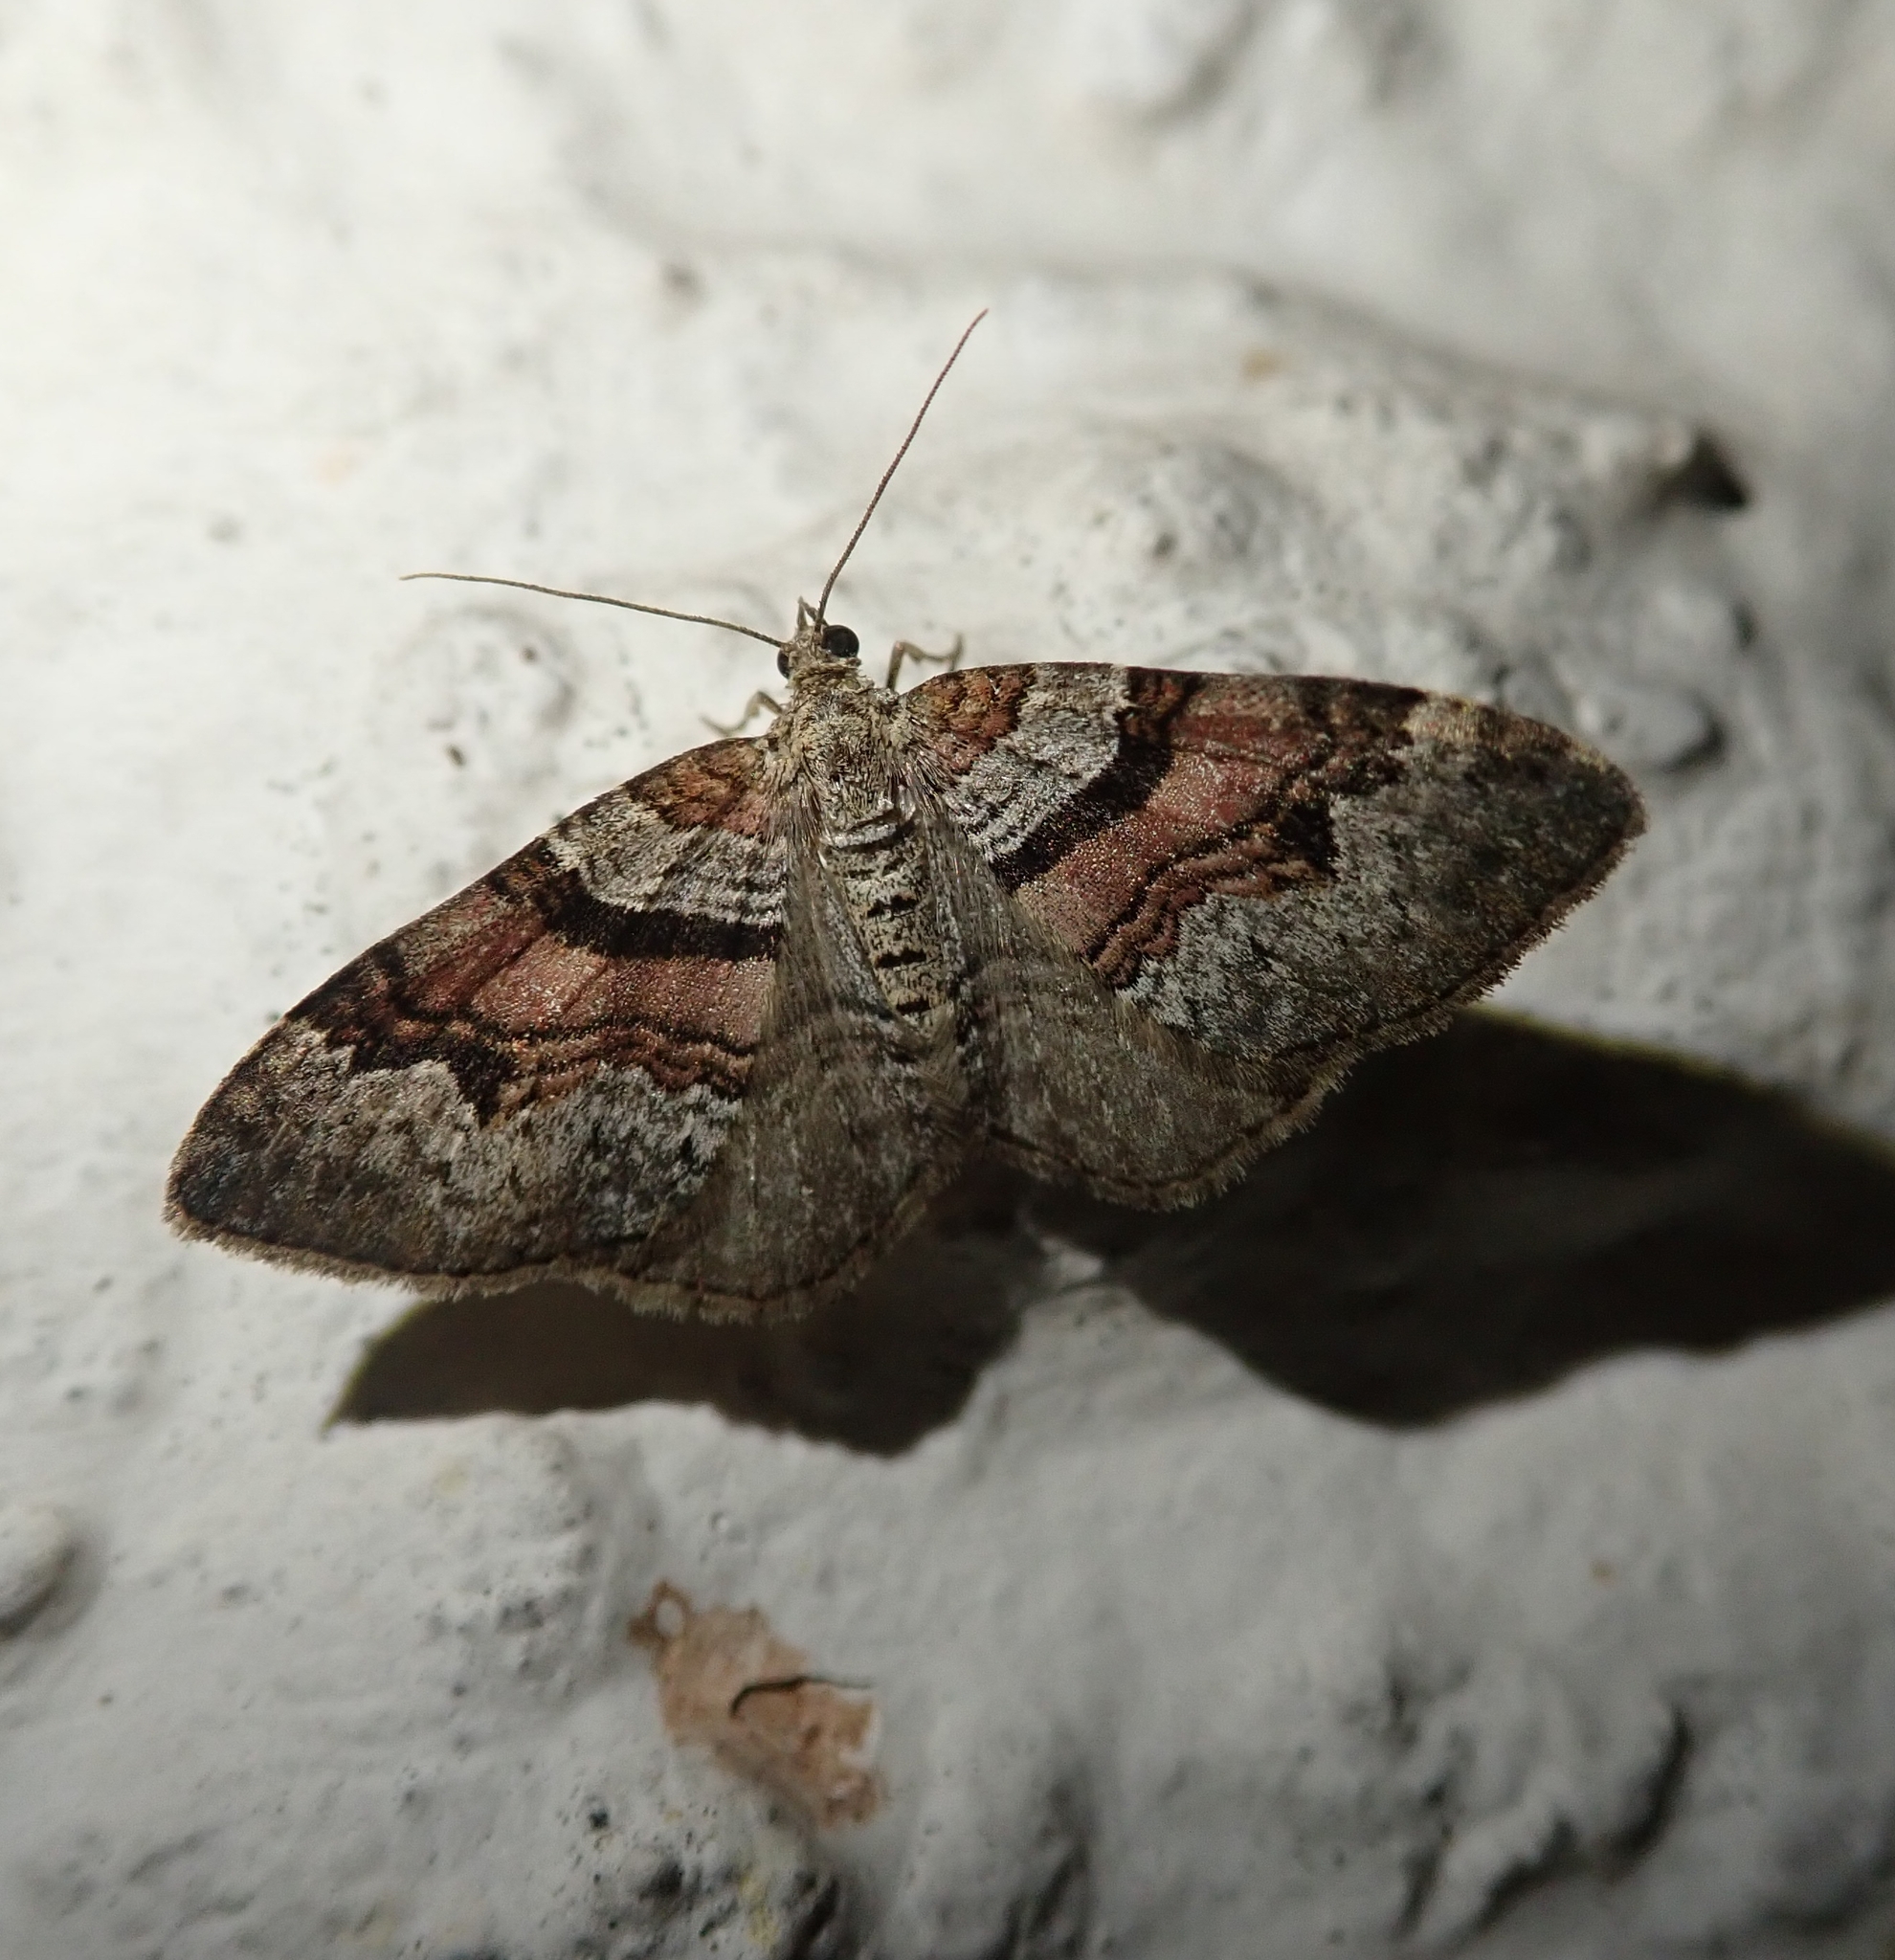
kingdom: Animalia
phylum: Arthropoda
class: Insecta
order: Lepidoptera
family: Geometridae
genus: Xanthorhoe
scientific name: Xanthorhoe designata
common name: Flame carpet
